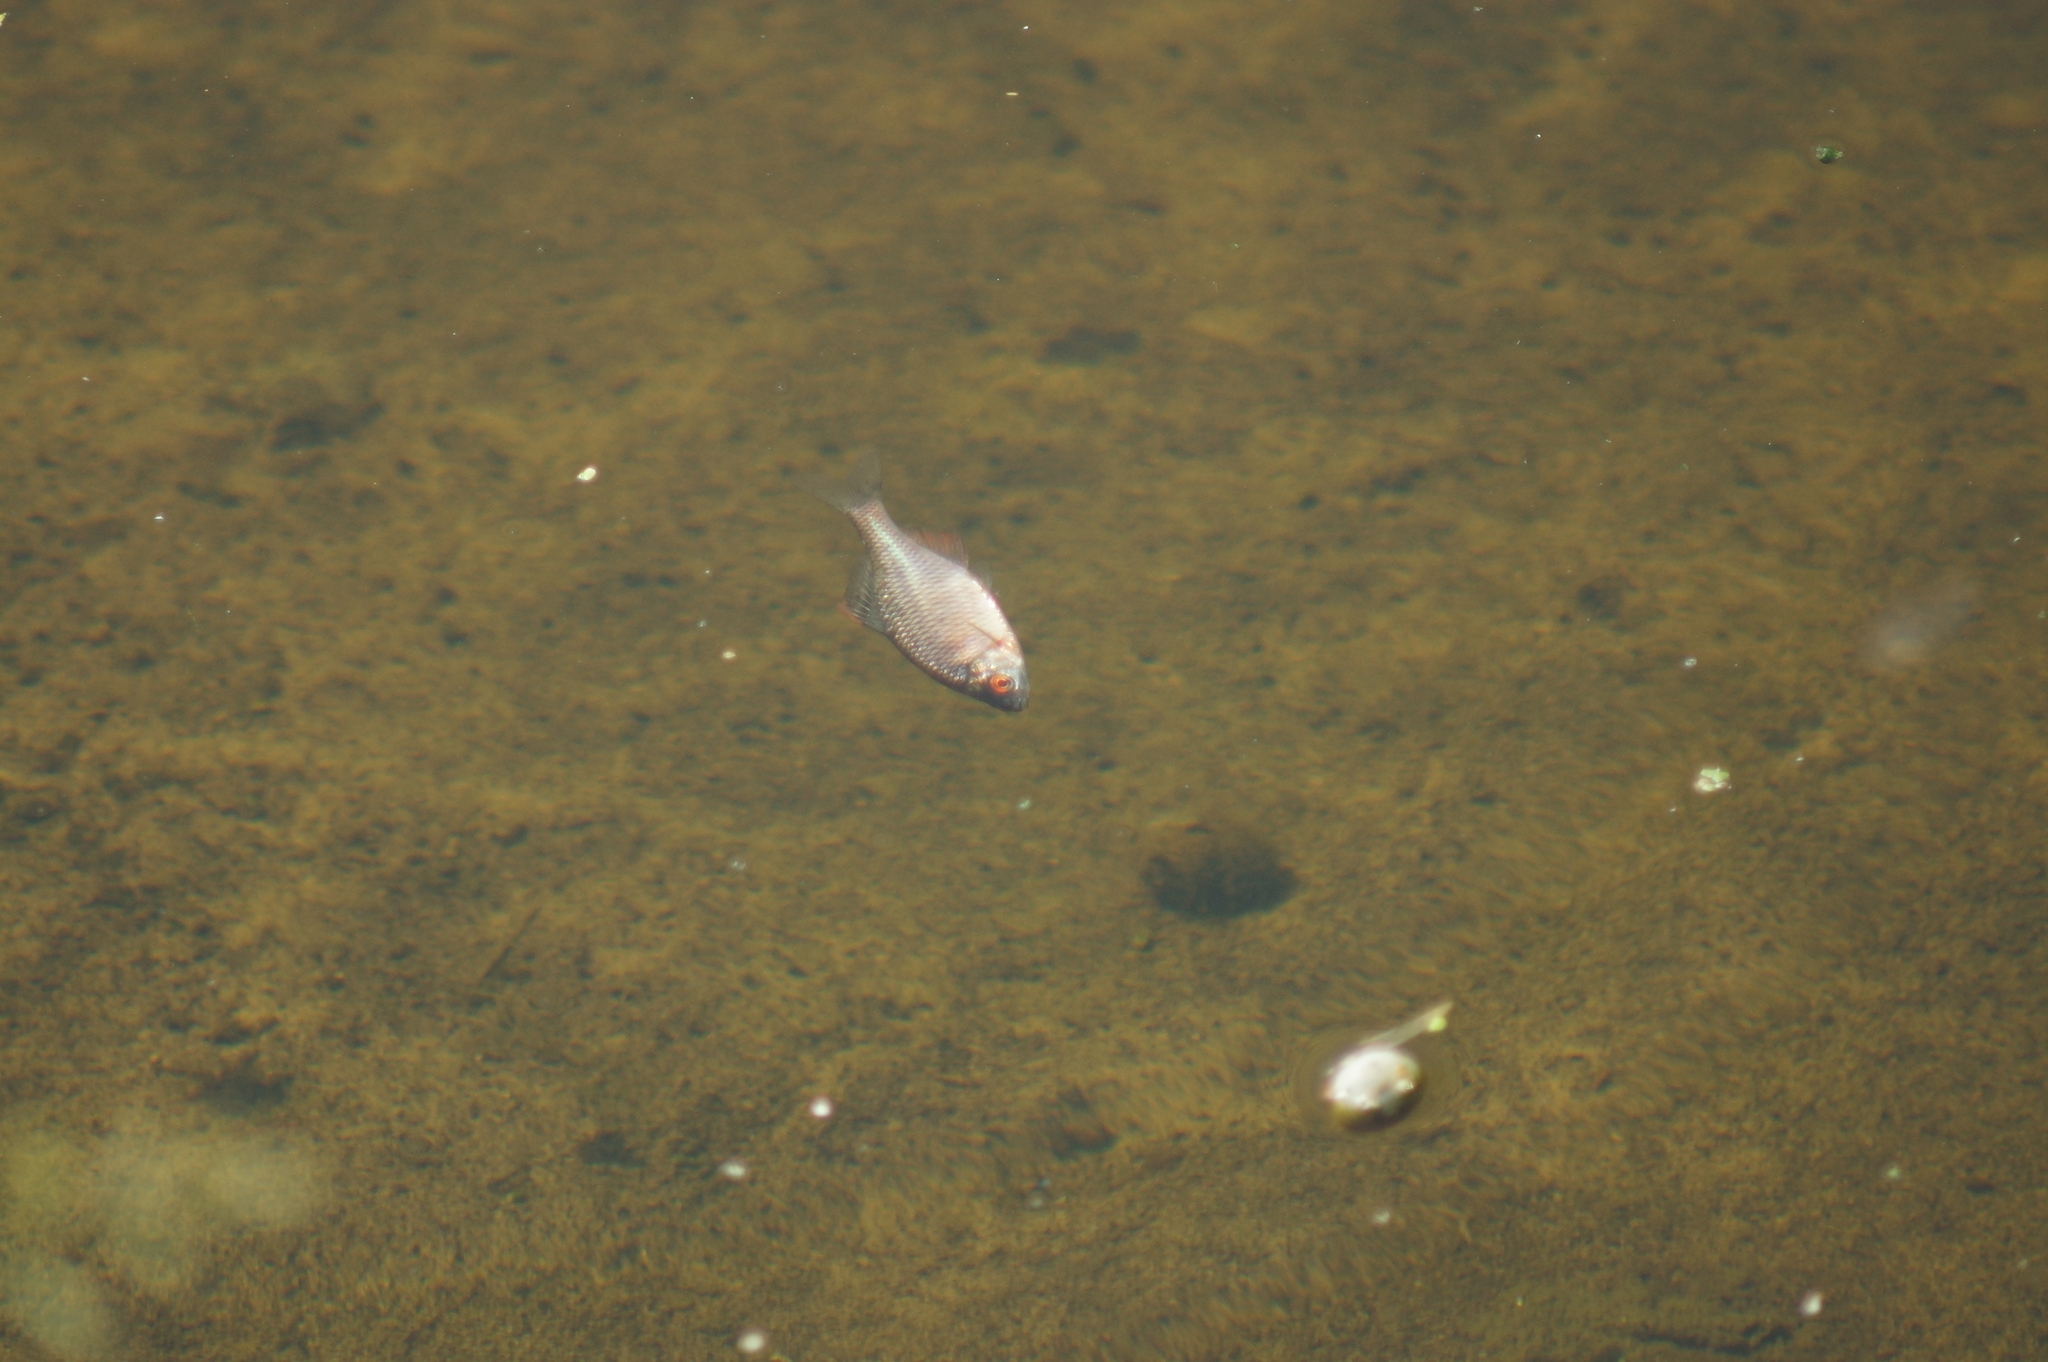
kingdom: Animalia
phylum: Chordata
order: Cypriniformes
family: Cyprinidae
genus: Rhodeus
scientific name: Rhodeus amarus
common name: Bitterling
